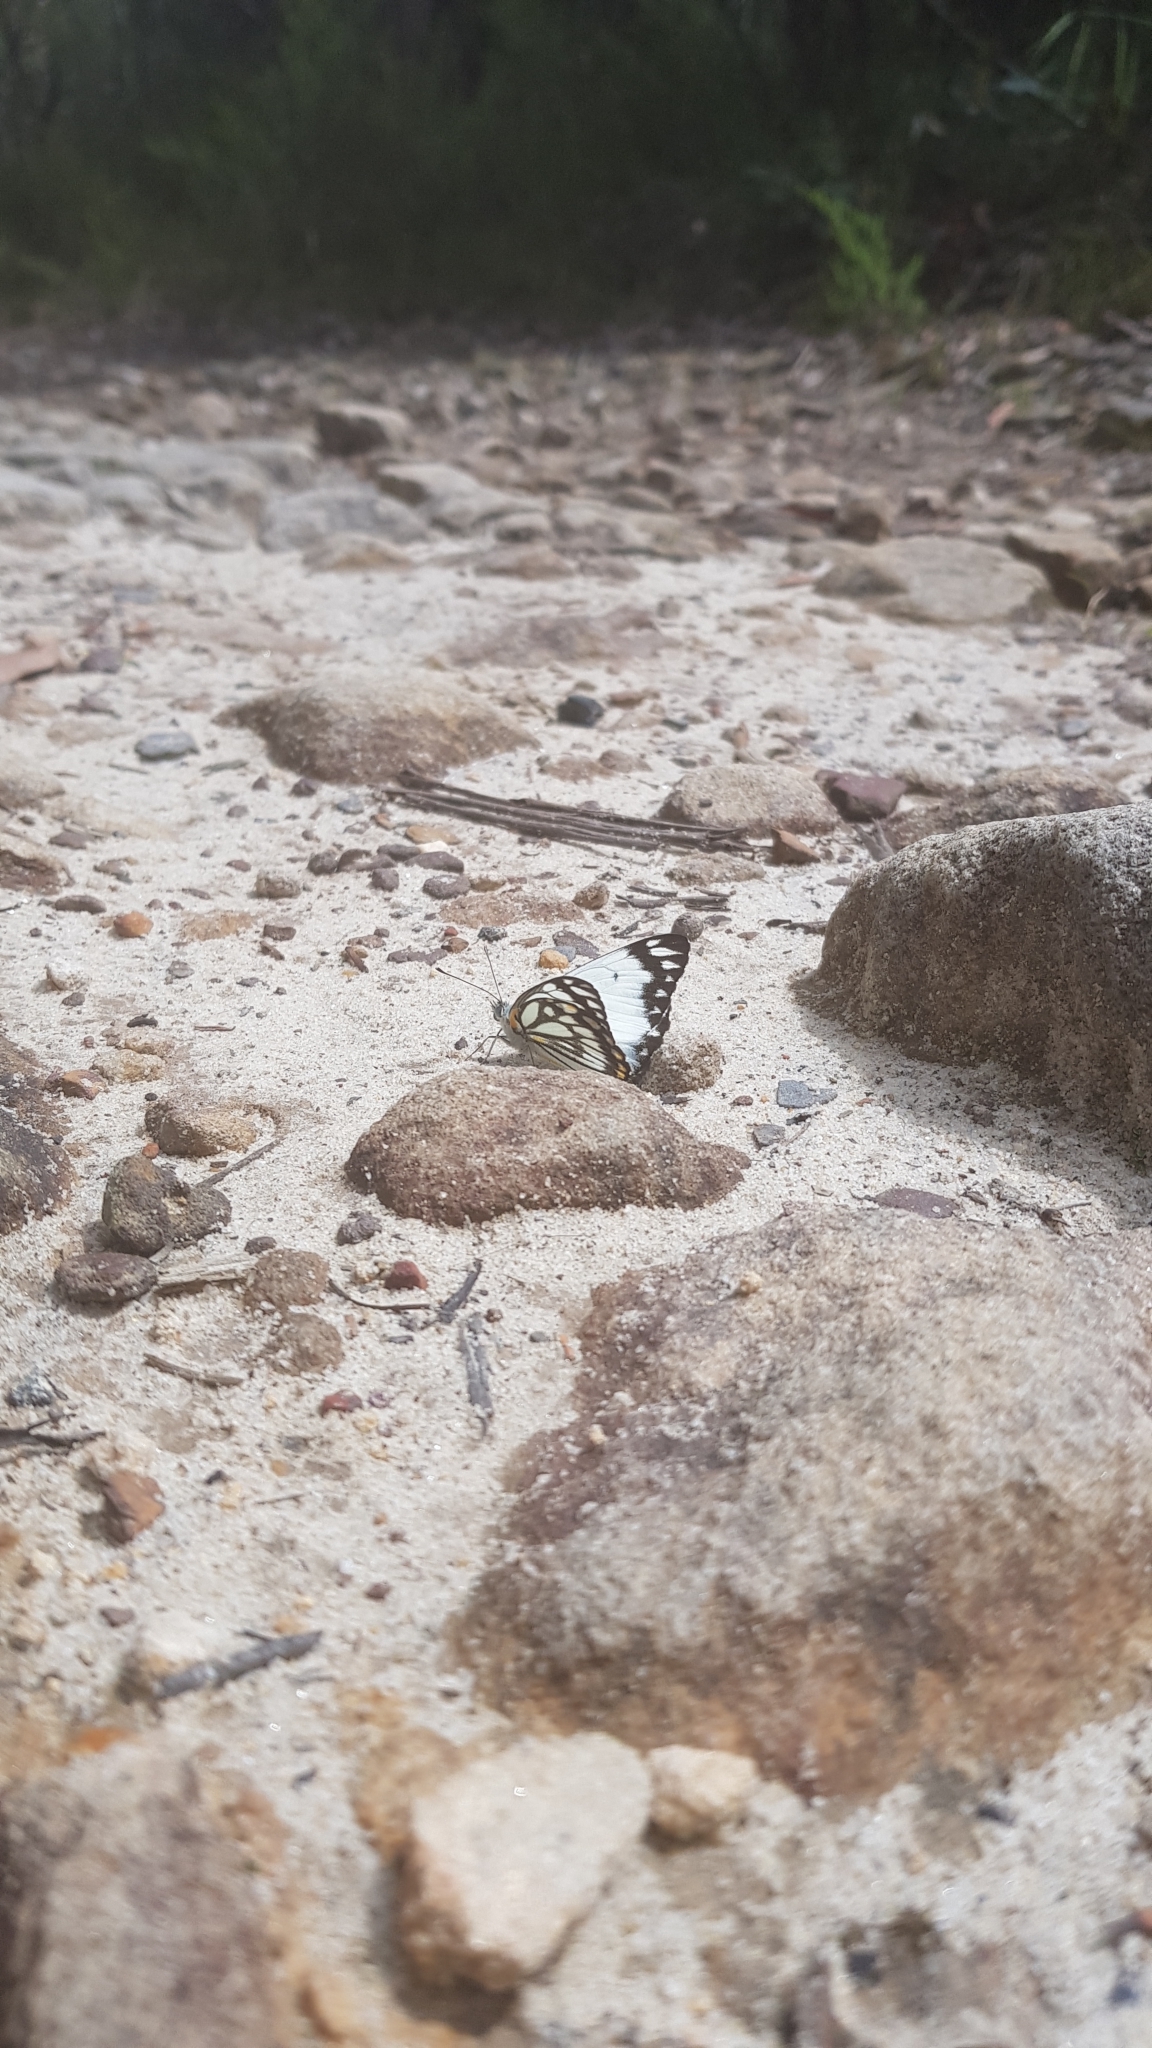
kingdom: Animalia
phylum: Arthropoda
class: Insecta
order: Lepidoptera
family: Pieridae
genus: Belenois
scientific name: Belenois java
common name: Caper white
